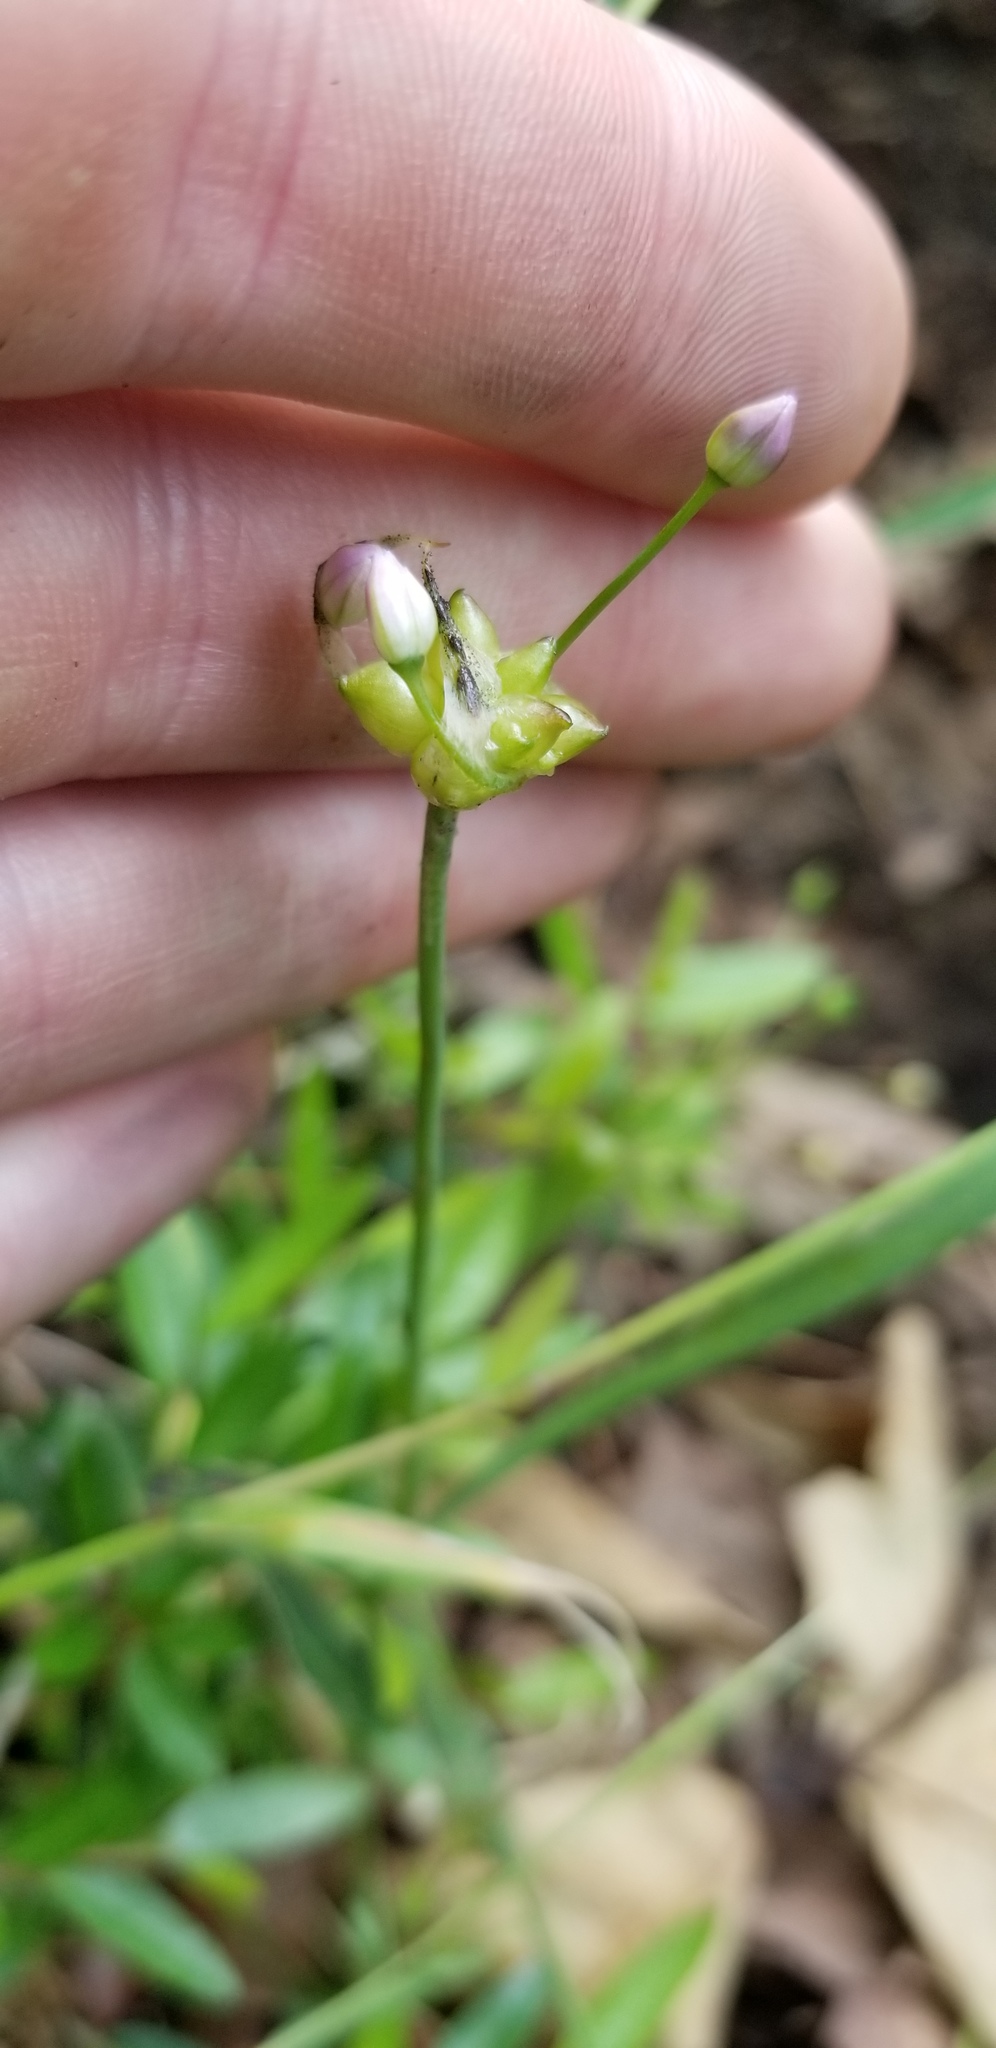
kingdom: Plantae
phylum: Tracheophyta
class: Liliopsida
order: Asparagales
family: Amaryllidaceae
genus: Allium
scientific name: Allium canadense
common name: Meadow garlic
